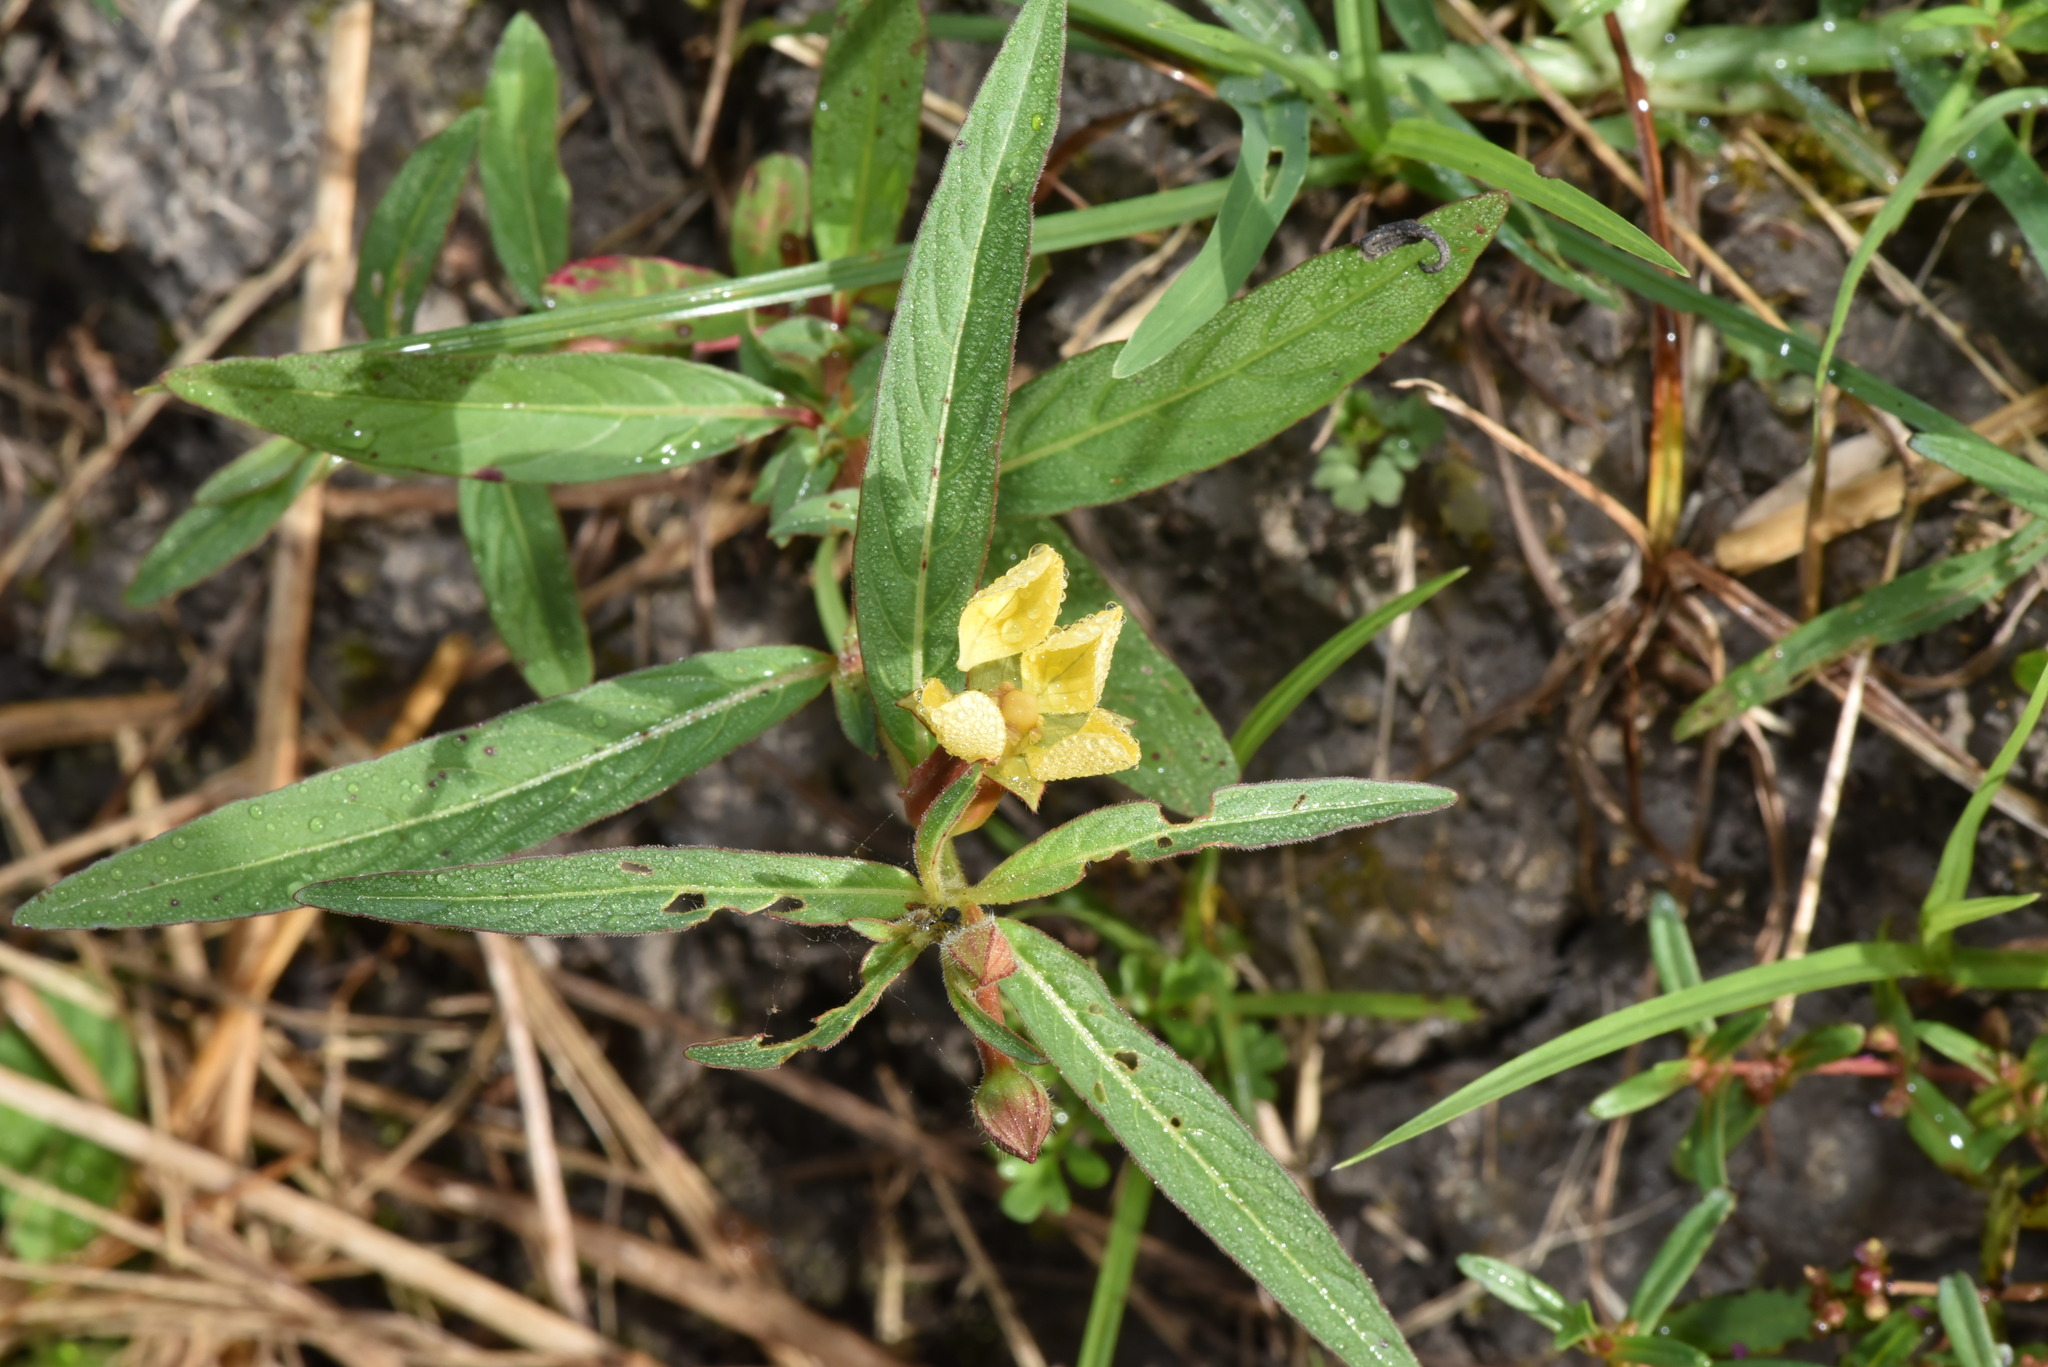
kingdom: Plantae
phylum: Tracheophyta
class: Magnoliopsida
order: Myrtales
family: Onagraceae
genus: Ludwigia
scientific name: Ludwigia octovalvis
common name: Water-primrose
